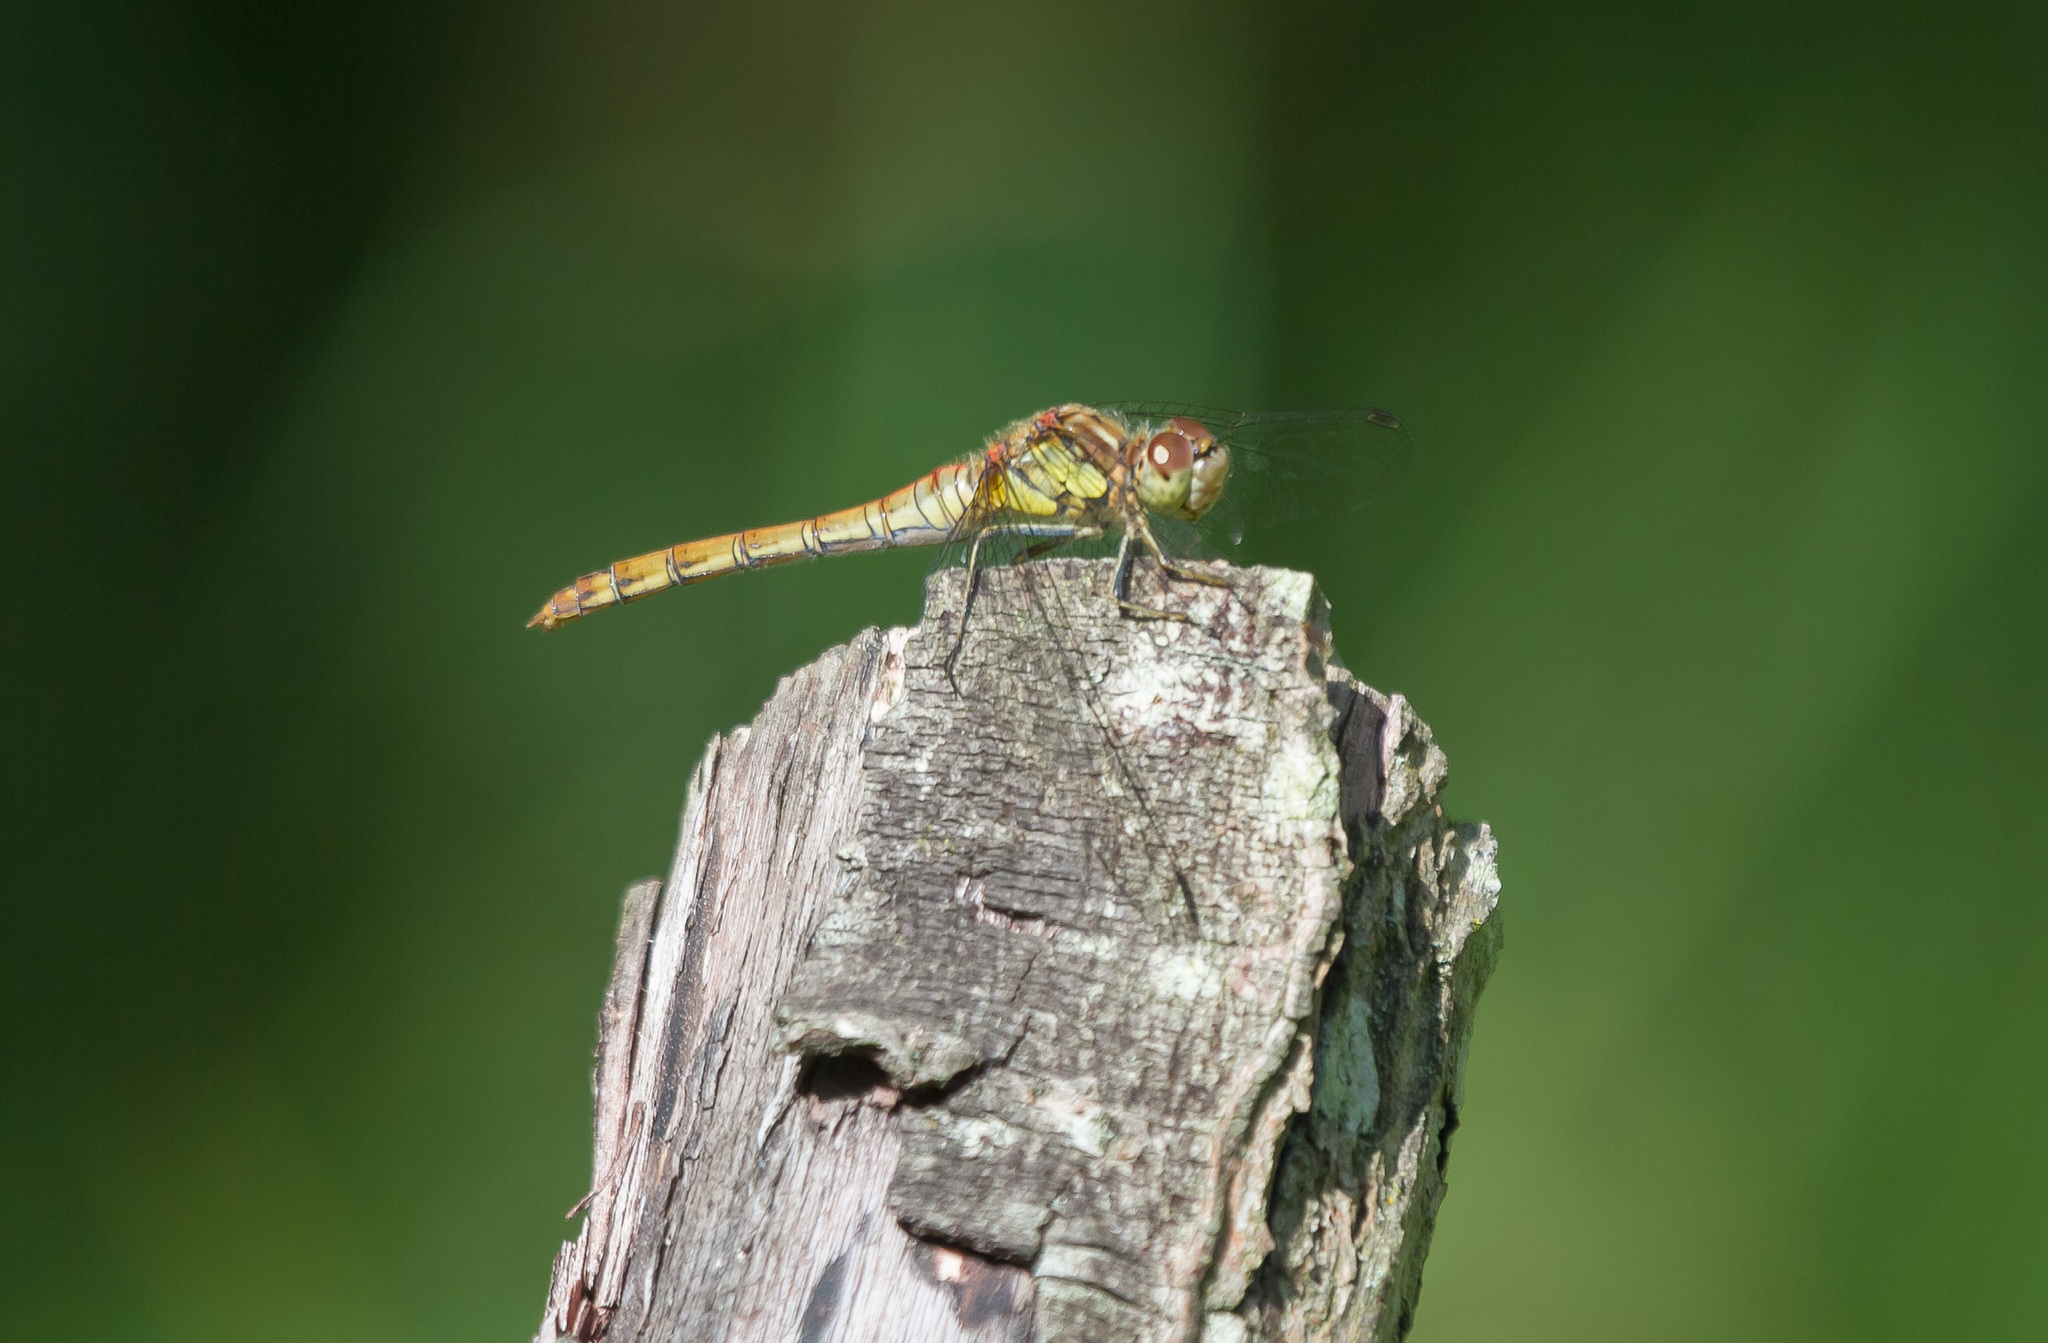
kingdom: Animalia
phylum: Arthropoda
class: Insecta
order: Odonata
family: Libellulidae
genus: Sympetrum
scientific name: Sympetrum striolatum
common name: Common darter
